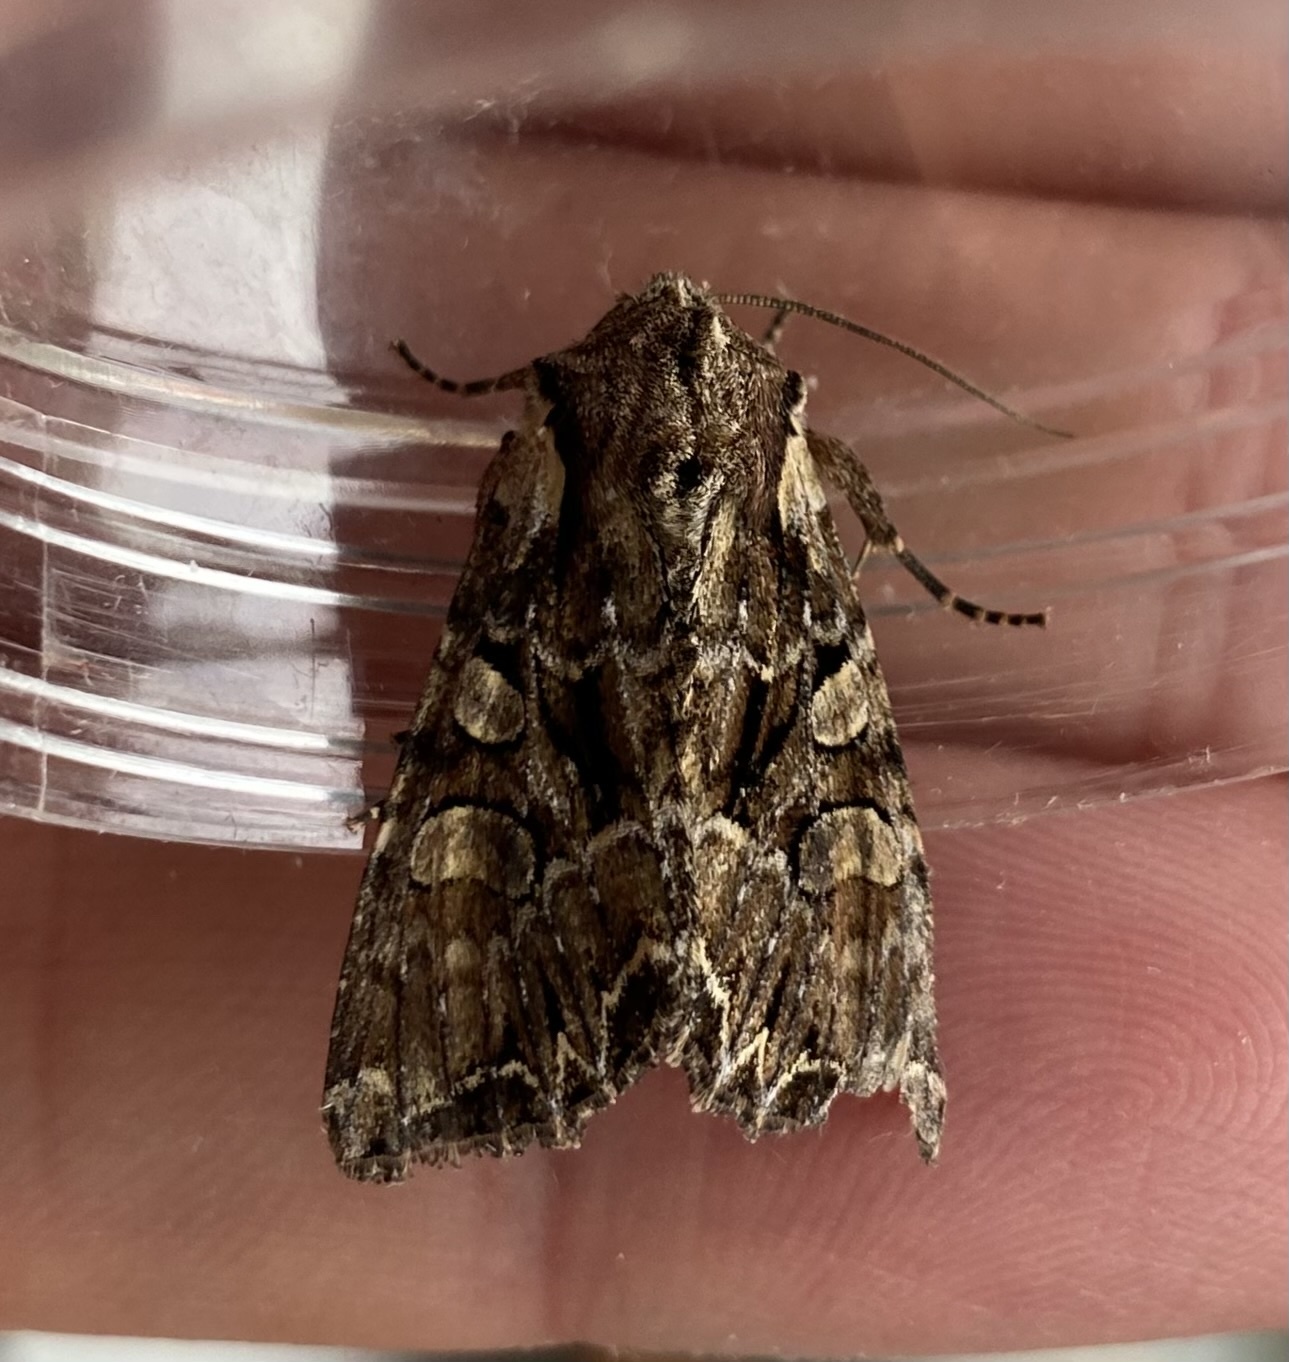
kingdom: Animalia
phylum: Arthropoda
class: Insecta
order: Lepidoptera
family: Noctuidae
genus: Lacanobia
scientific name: Lacanobia thalassina
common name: Pale-shouldered brocade
